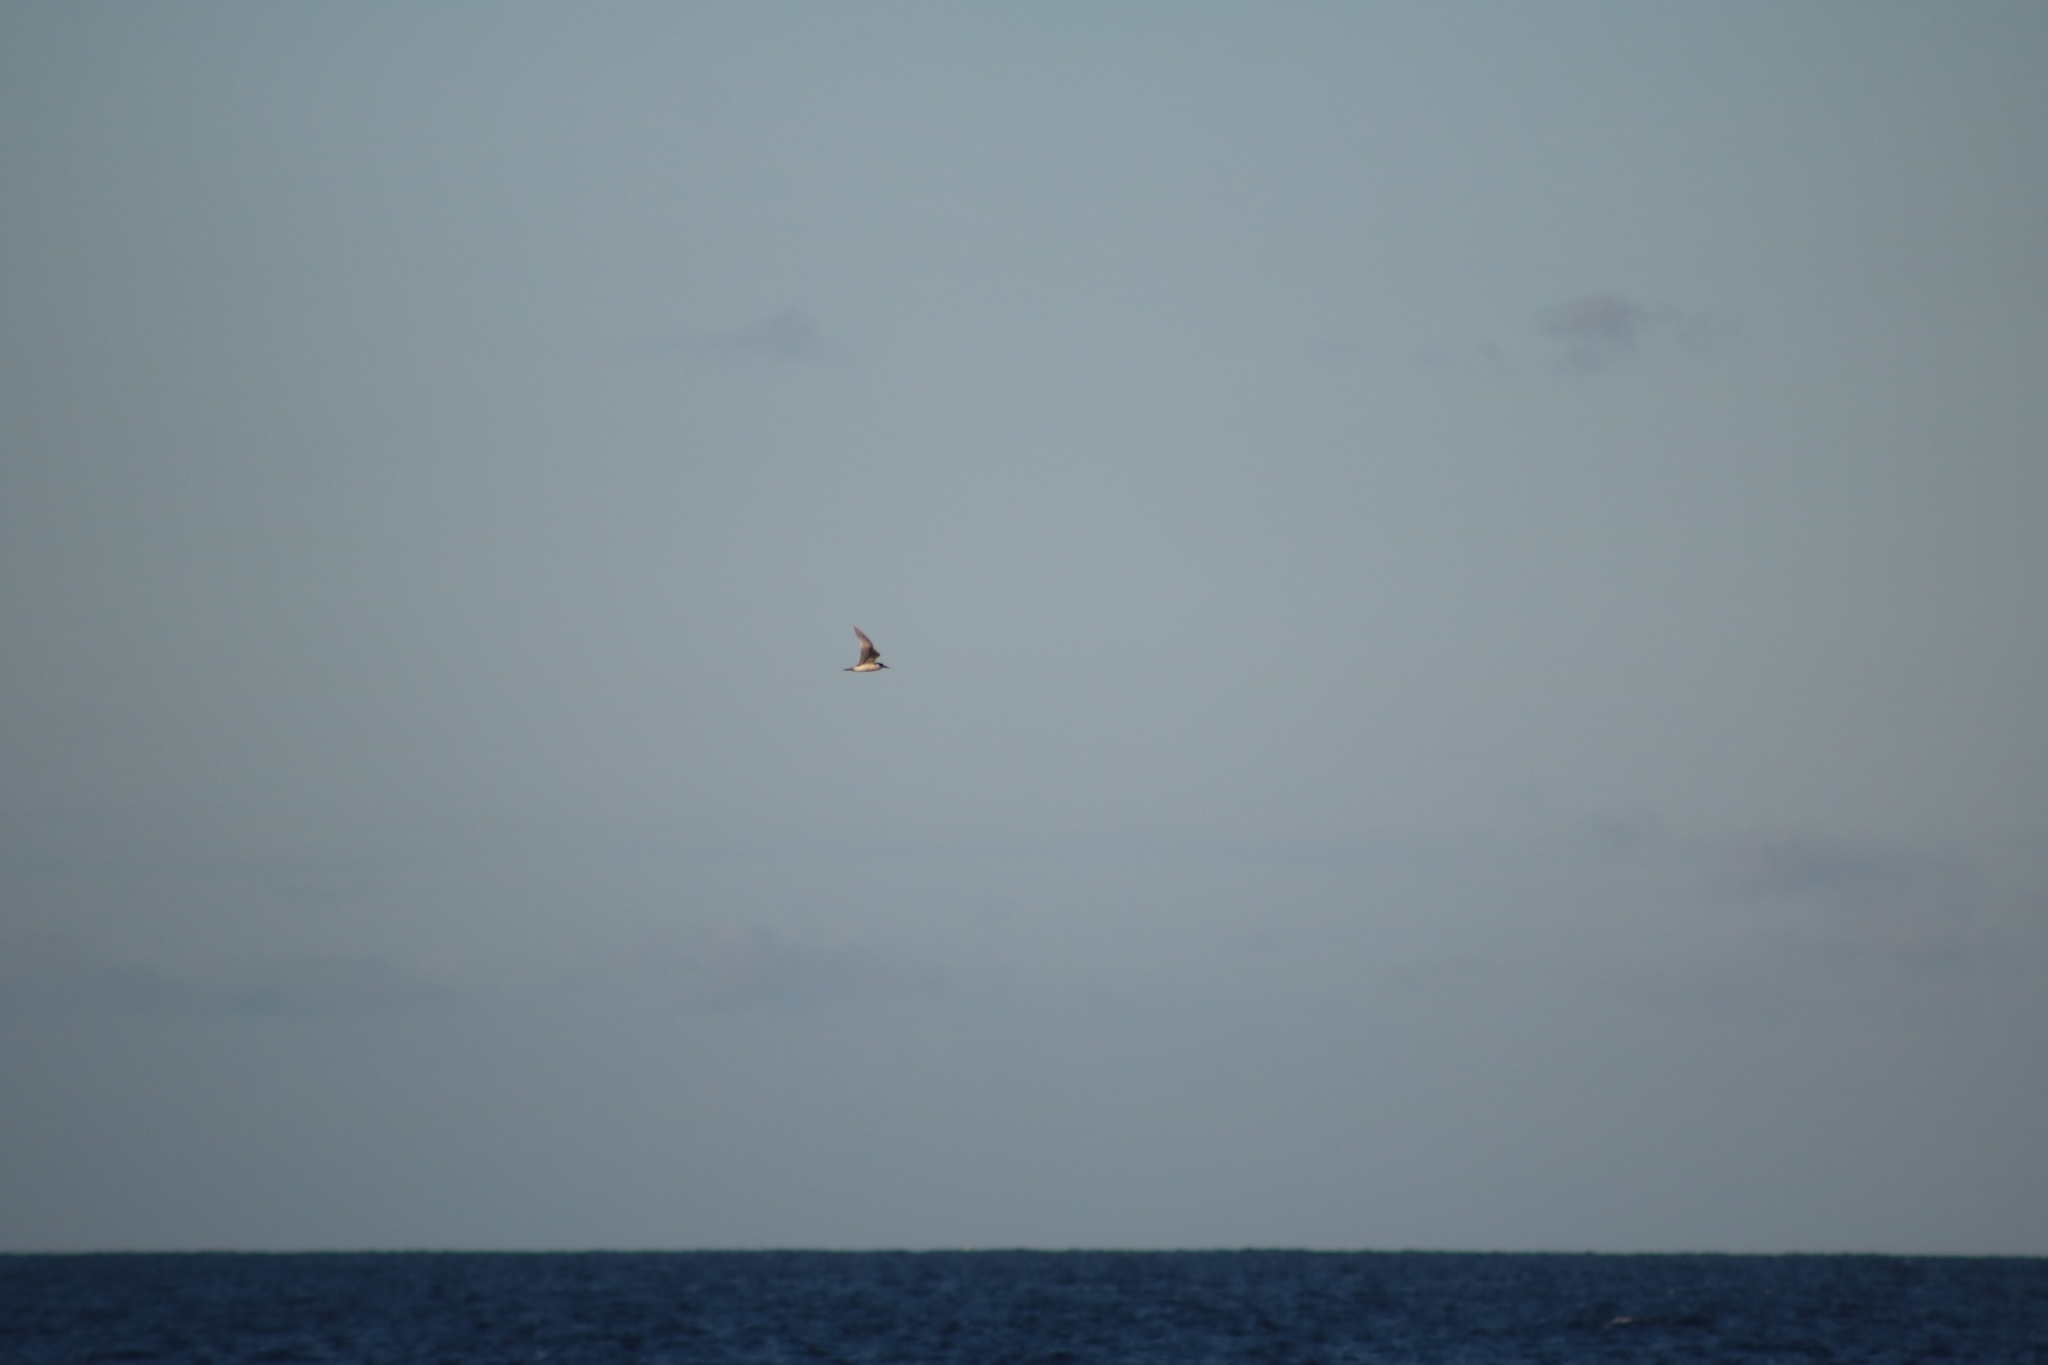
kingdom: Animalia
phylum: Chordata
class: Aves
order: Charadriiformes
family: Laridae
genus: Thalasseus
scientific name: Thalasseus bergii
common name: Greater crested tern
